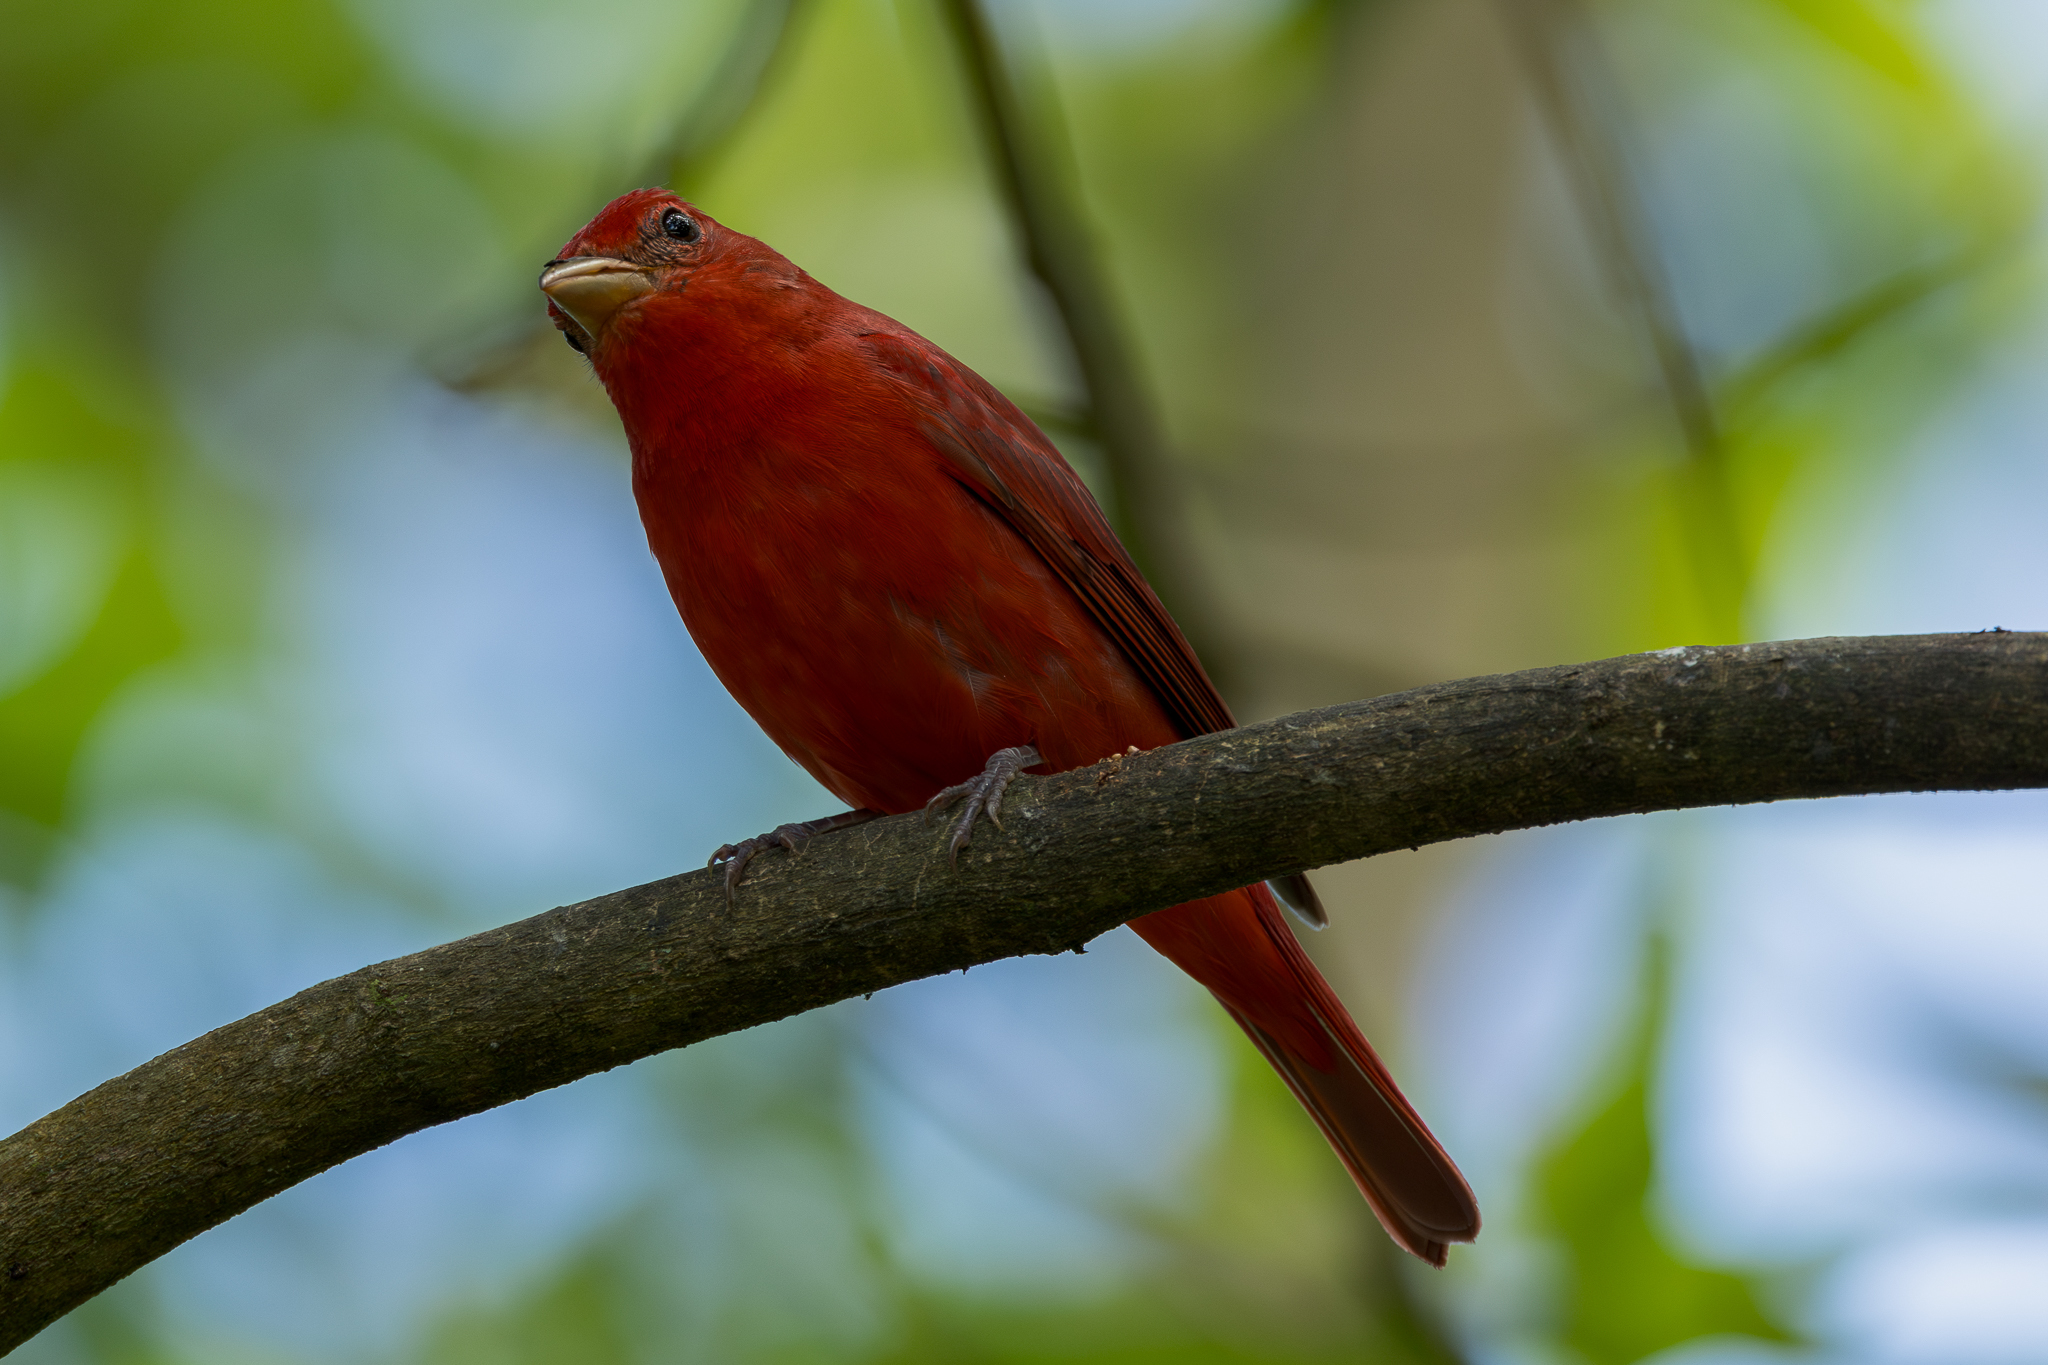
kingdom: Animalia
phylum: Chordata
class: Aves
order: Passeriformes
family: Cardinalidae
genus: Piranga
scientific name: Piranga rubra
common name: Summer tanager
